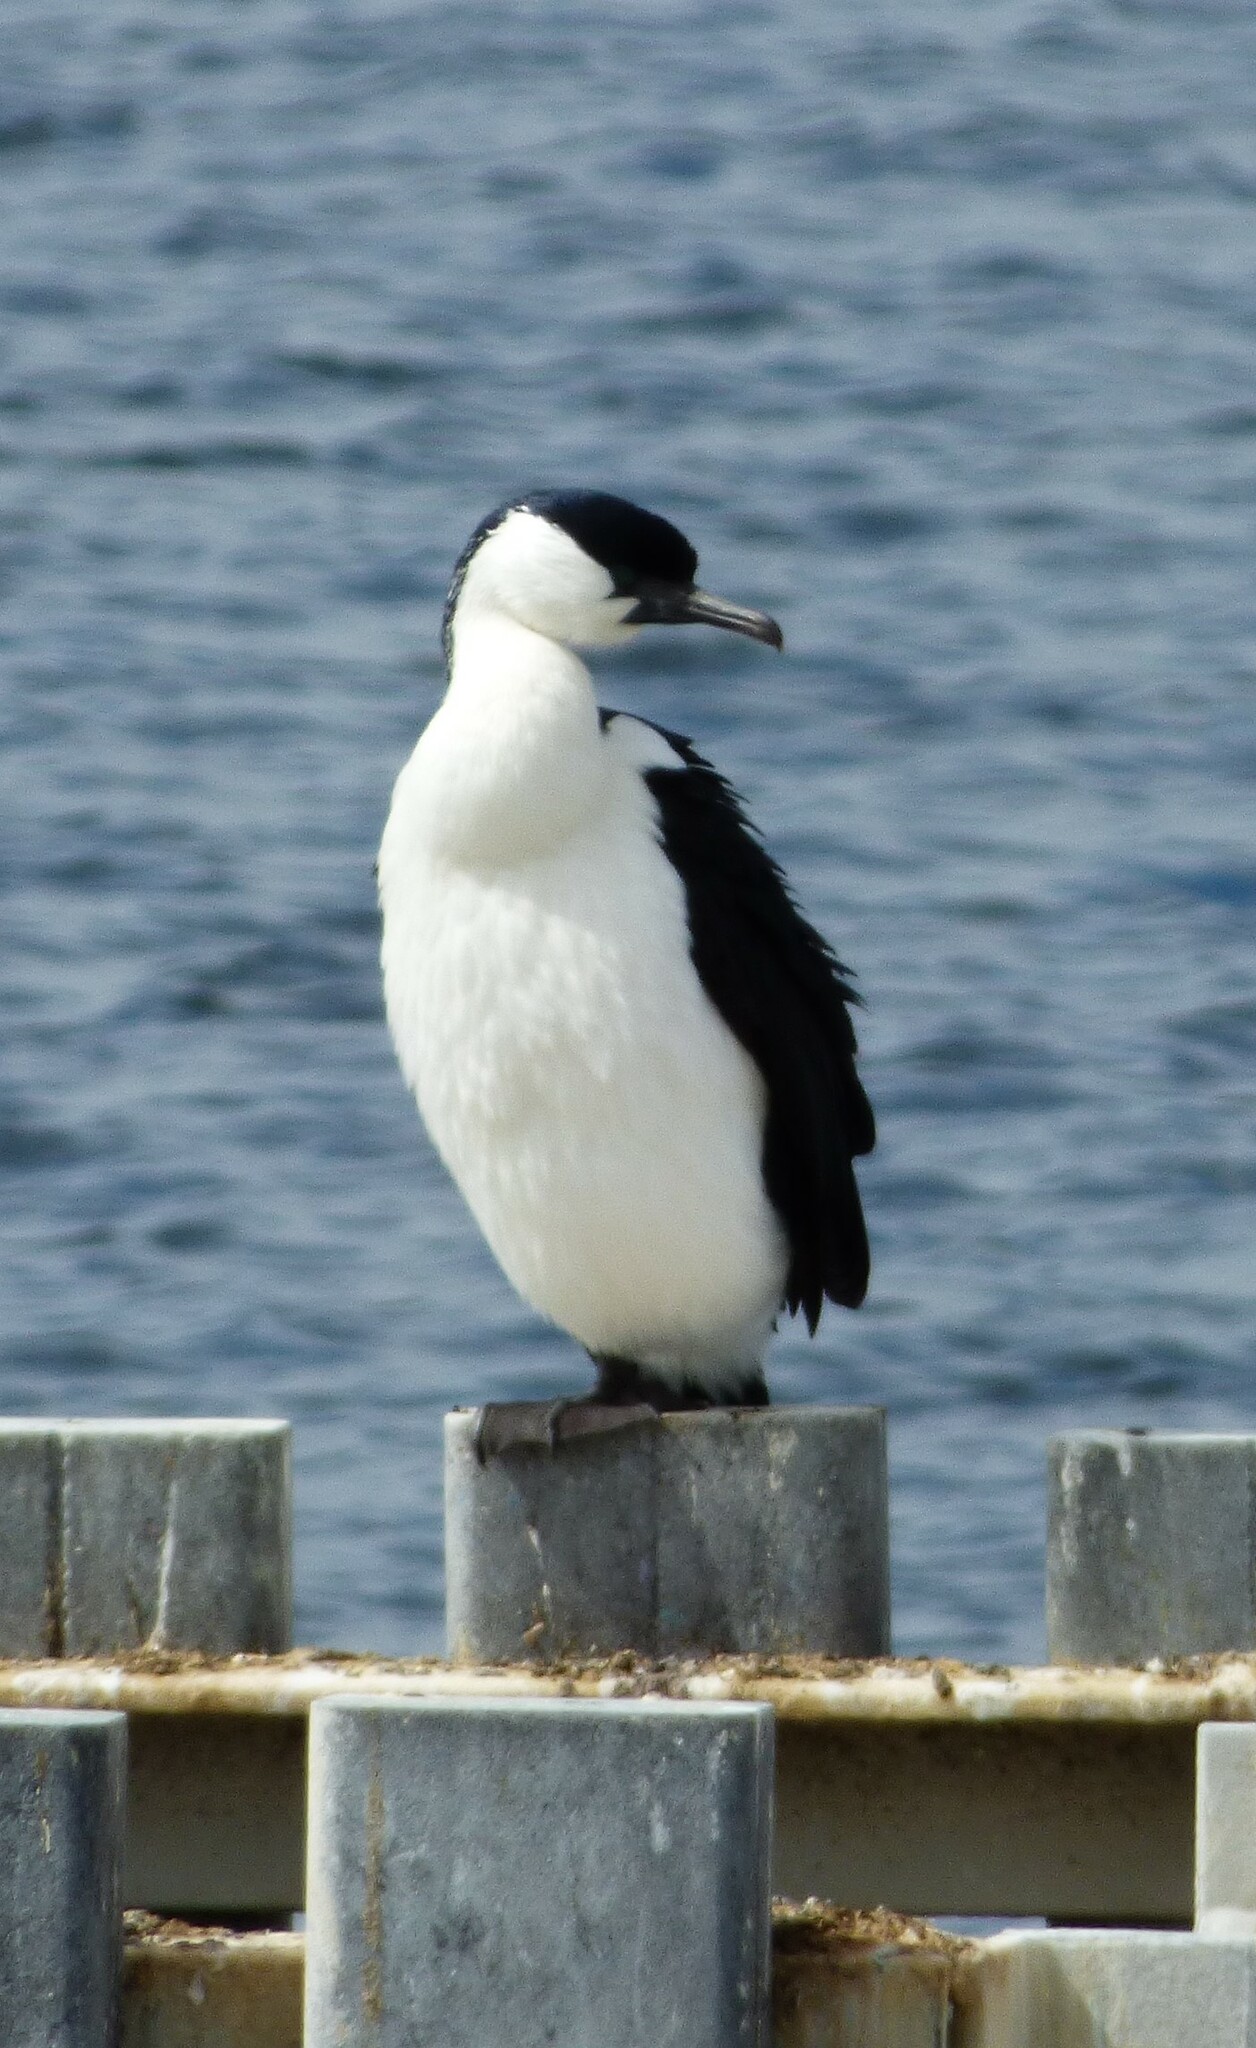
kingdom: Animalia
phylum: Chordata
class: Aves
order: Suliformes
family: Phalacrocoracidae
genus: Phalacrocorax
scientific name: Phalacrocorax fuscescens
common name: Black-faced cormorant
